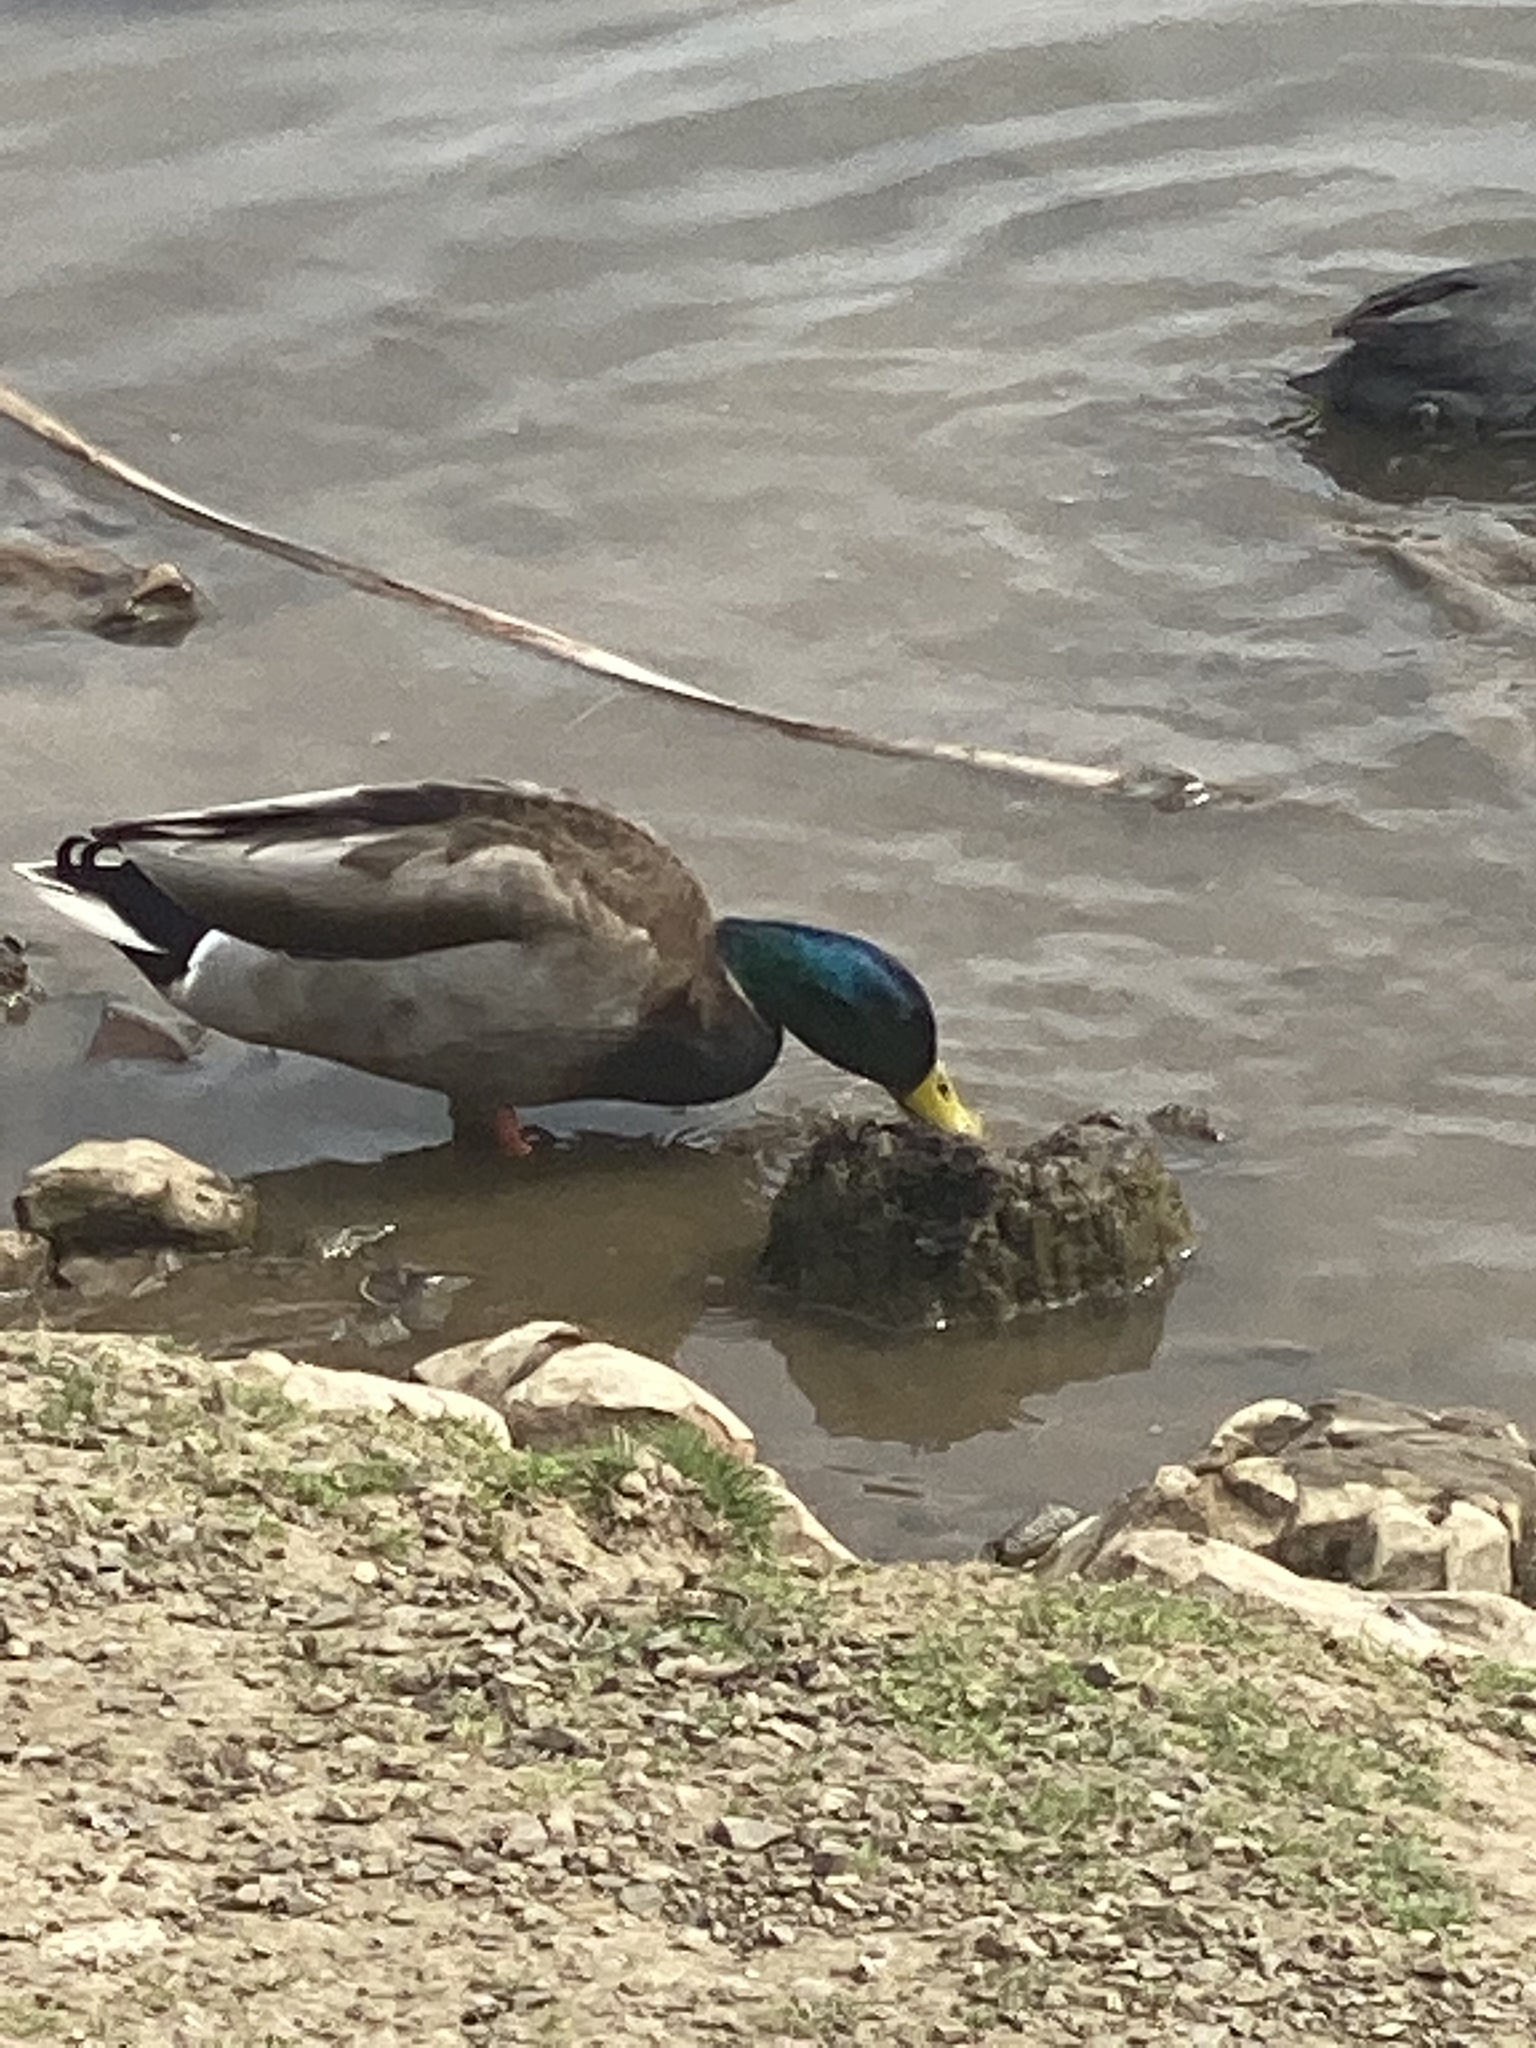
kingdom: Animalia
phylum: Chordata
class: Aves
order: Anseriformes
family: Anatidae
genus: Anas
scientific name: Anas platyrhynchos
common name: Mallard
